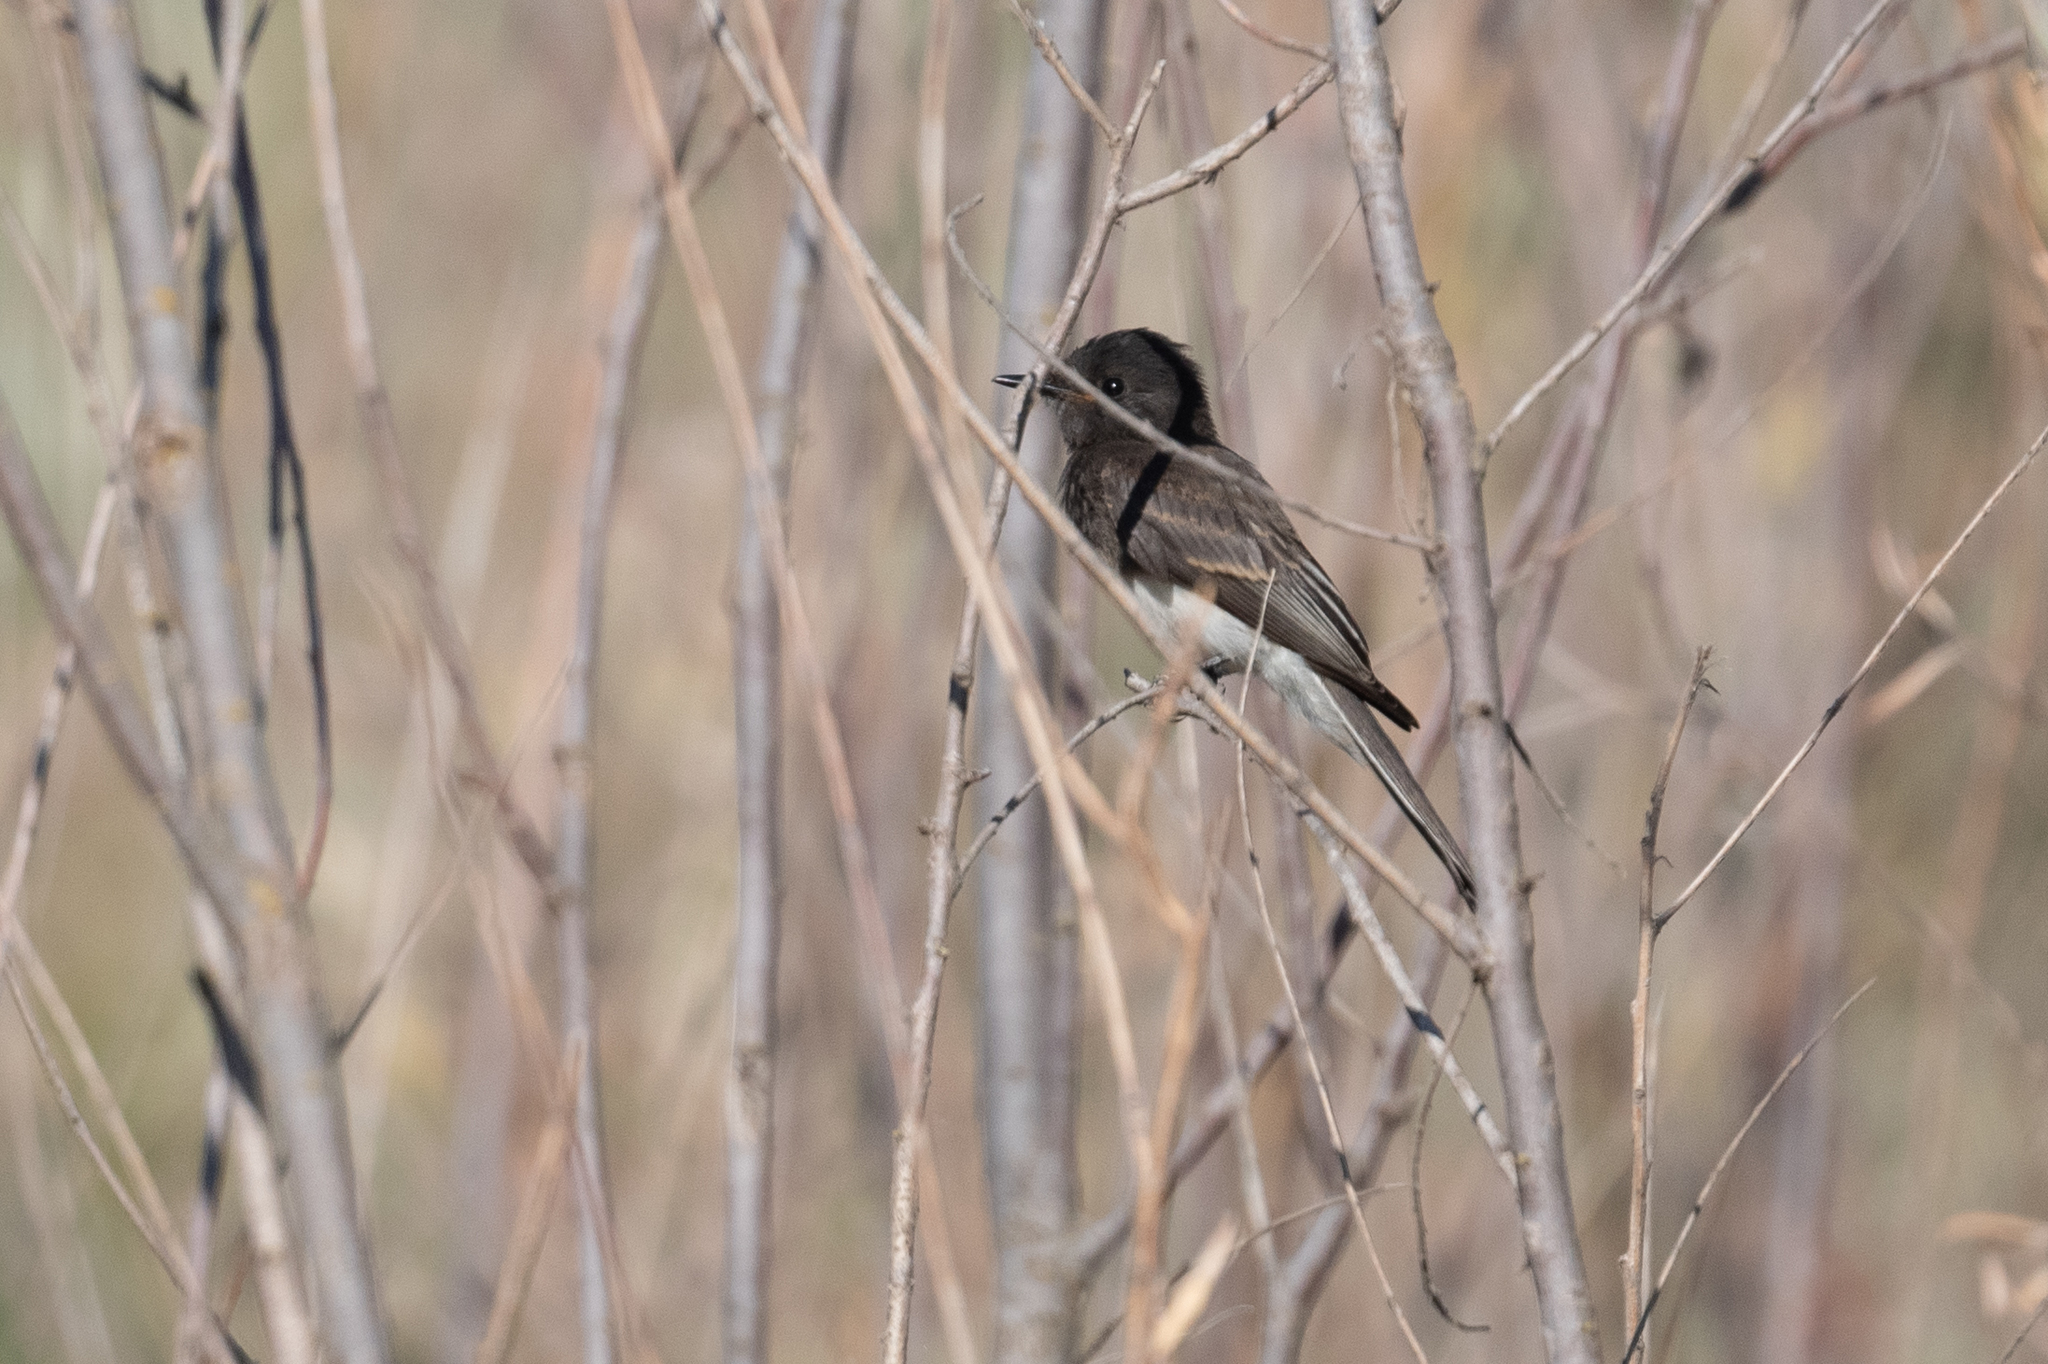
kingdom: Animalia
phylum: Chordata
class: Aves
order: Passeriformes
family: Tyrannidae
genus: Sayornis
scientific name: Sayornis nigricans
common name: Black phoebe
